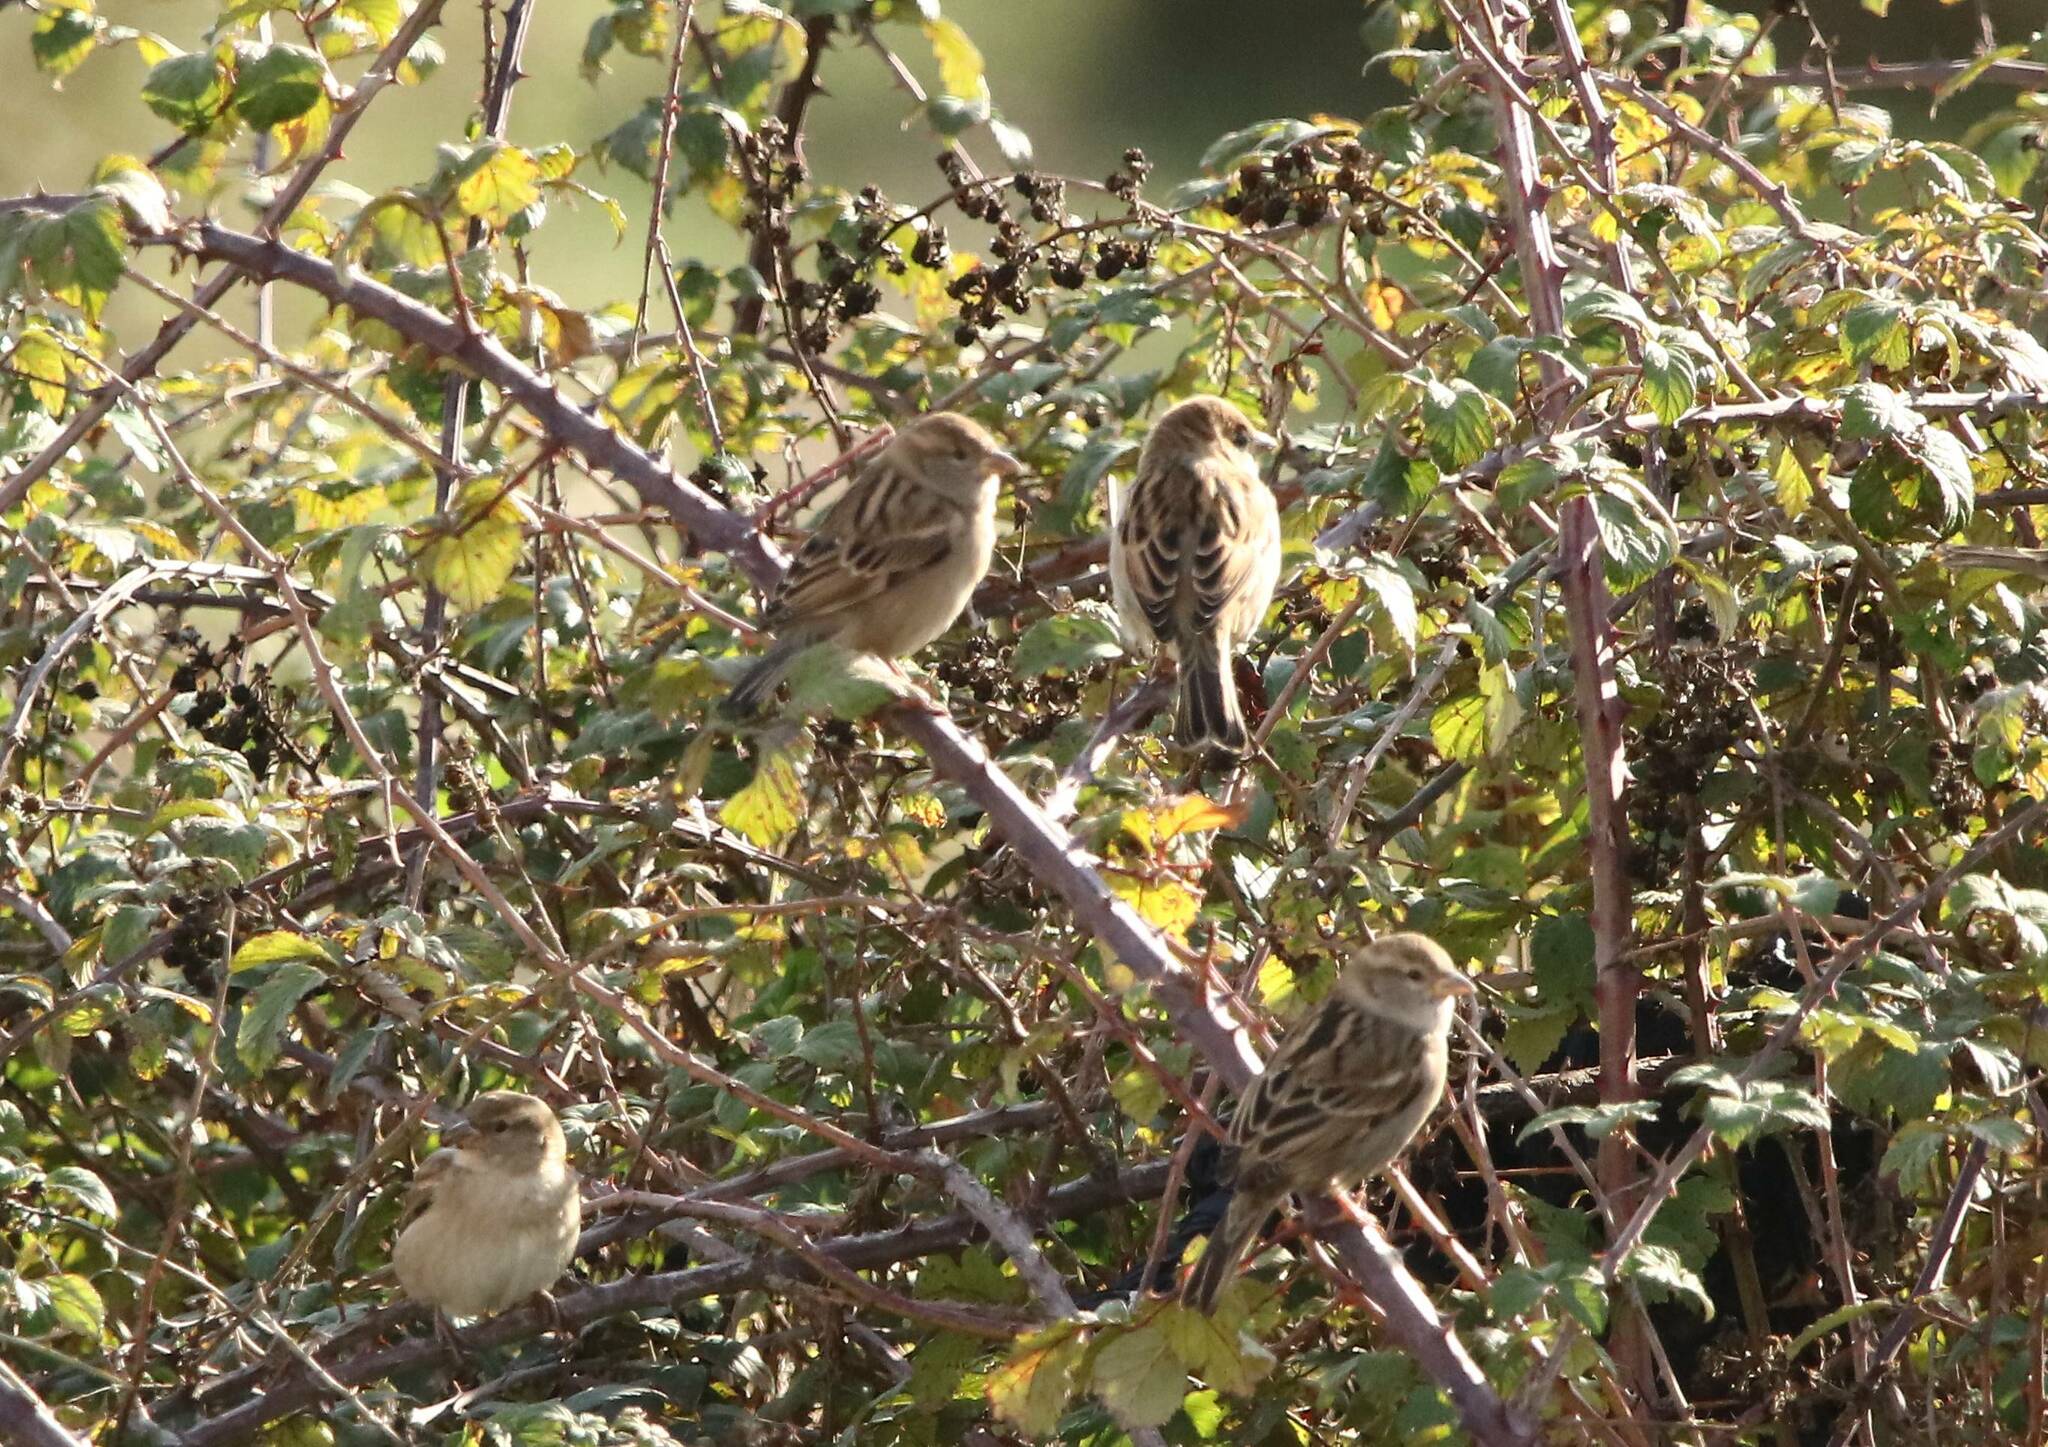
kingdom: Animalia
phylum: Chordata
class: Aves
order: Passeriformes
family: Passeridae
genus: Passer
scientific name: Passer hispaniolensis
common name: Spanish sparrow
